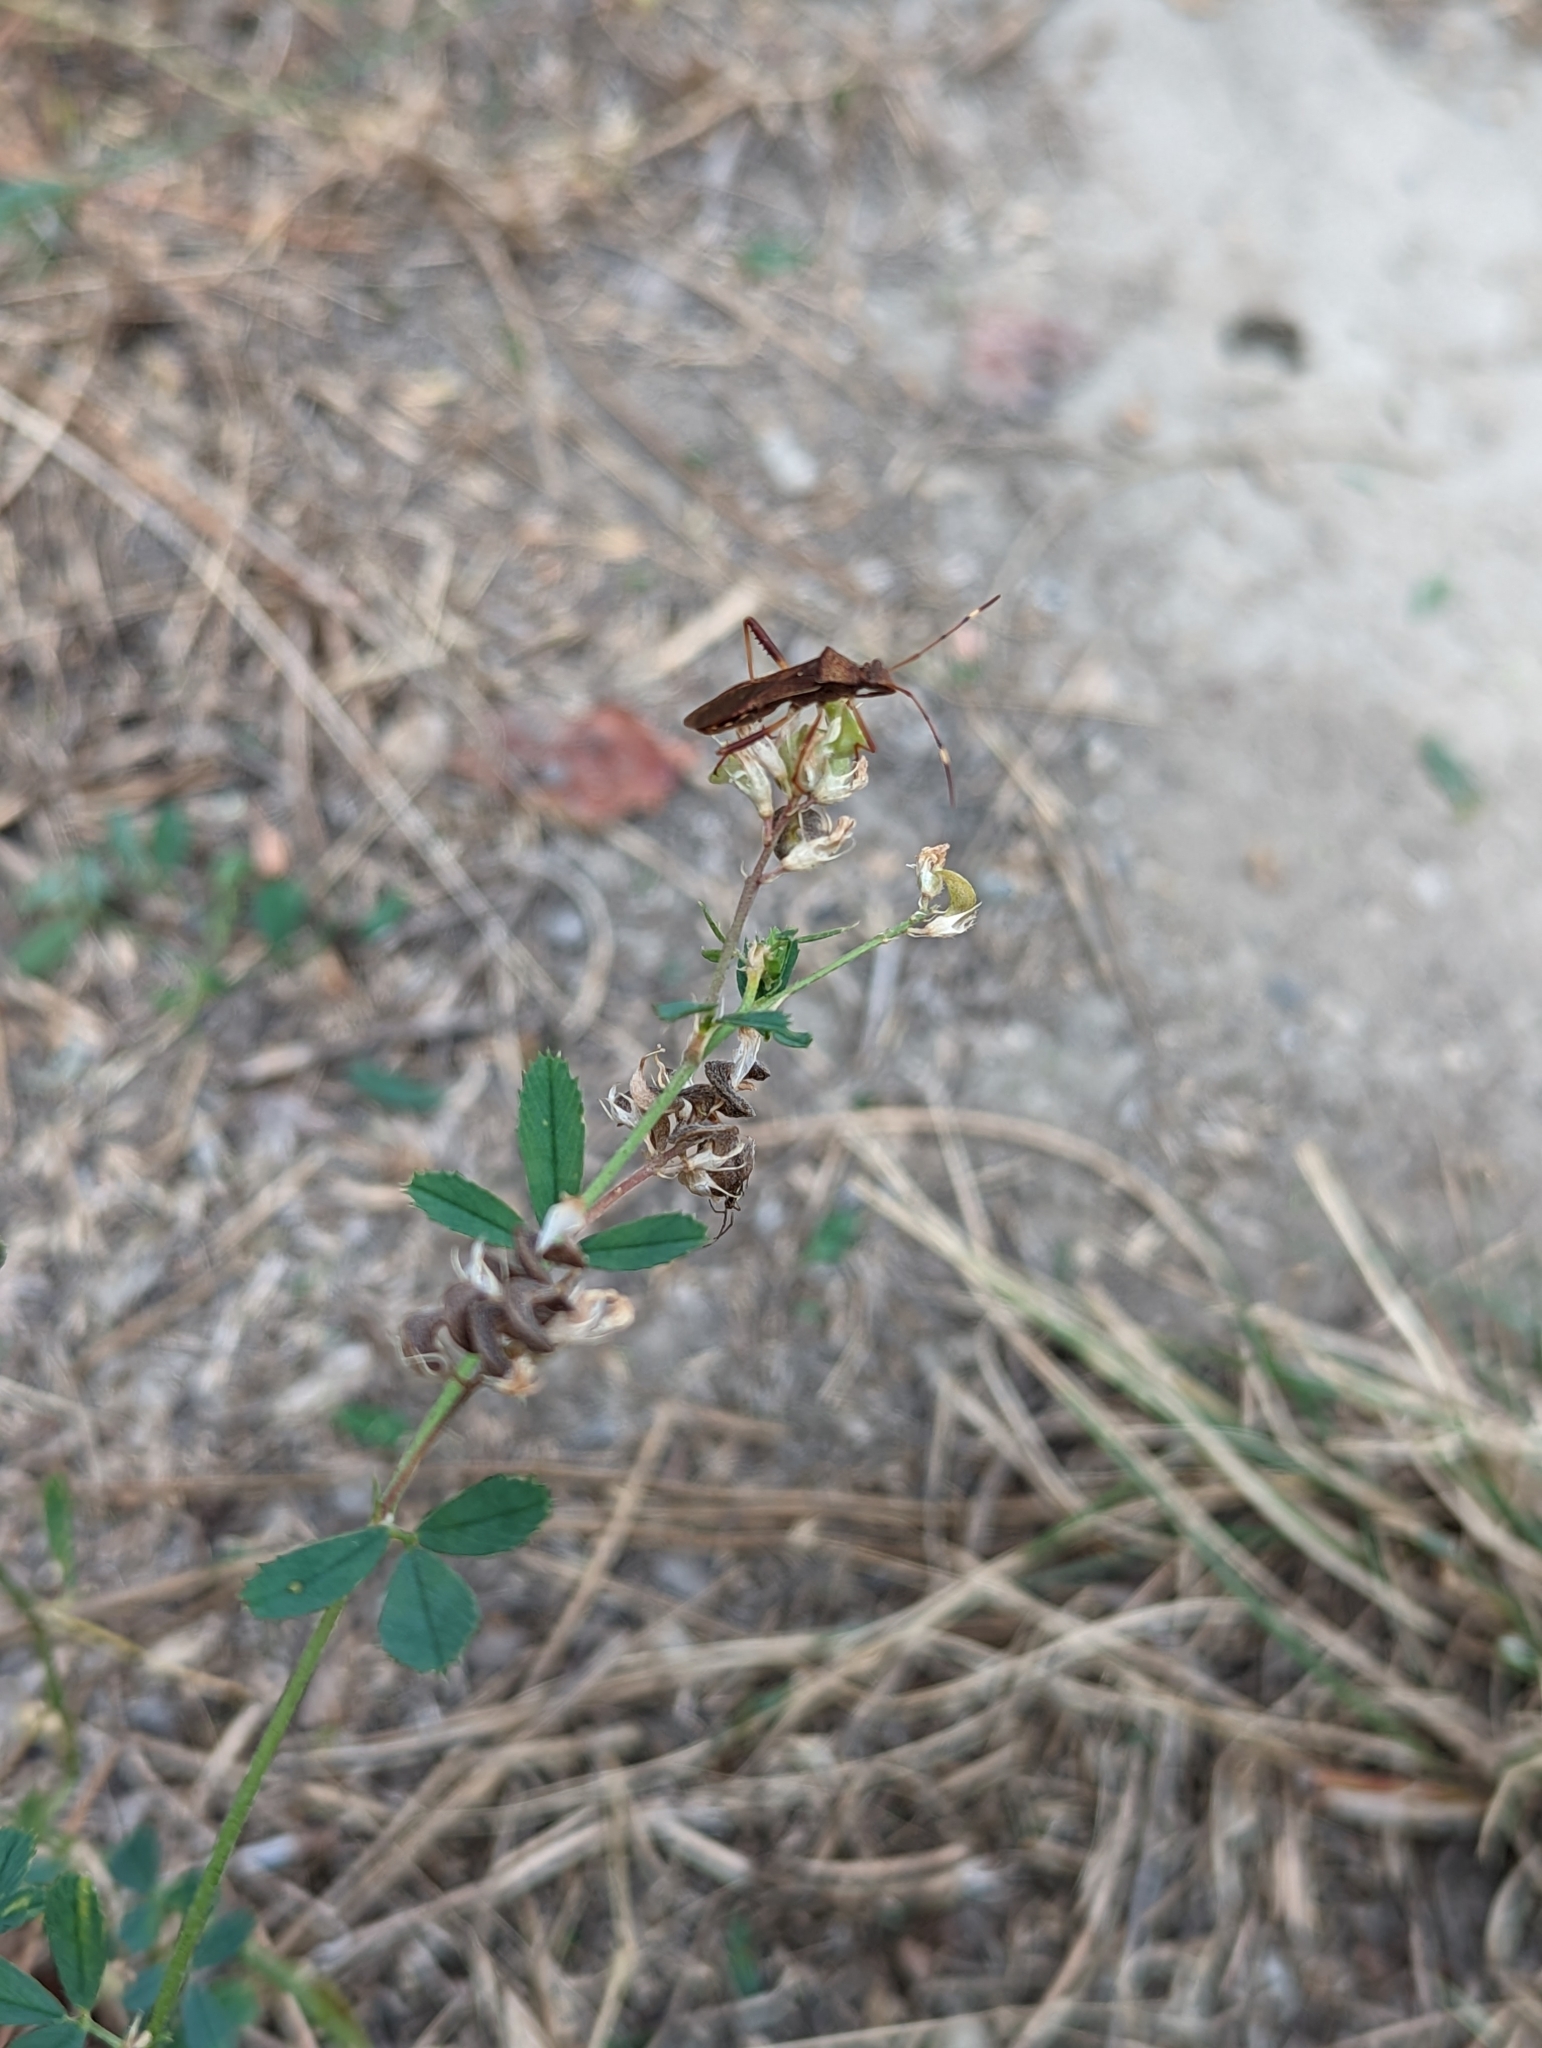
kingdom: Animalia
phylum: Arthropoda
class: Insecta
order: Hemiptera
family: Alydidae
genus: Megalotomus
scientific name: Megalotomus quinquespinosus
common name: Lupine bug
